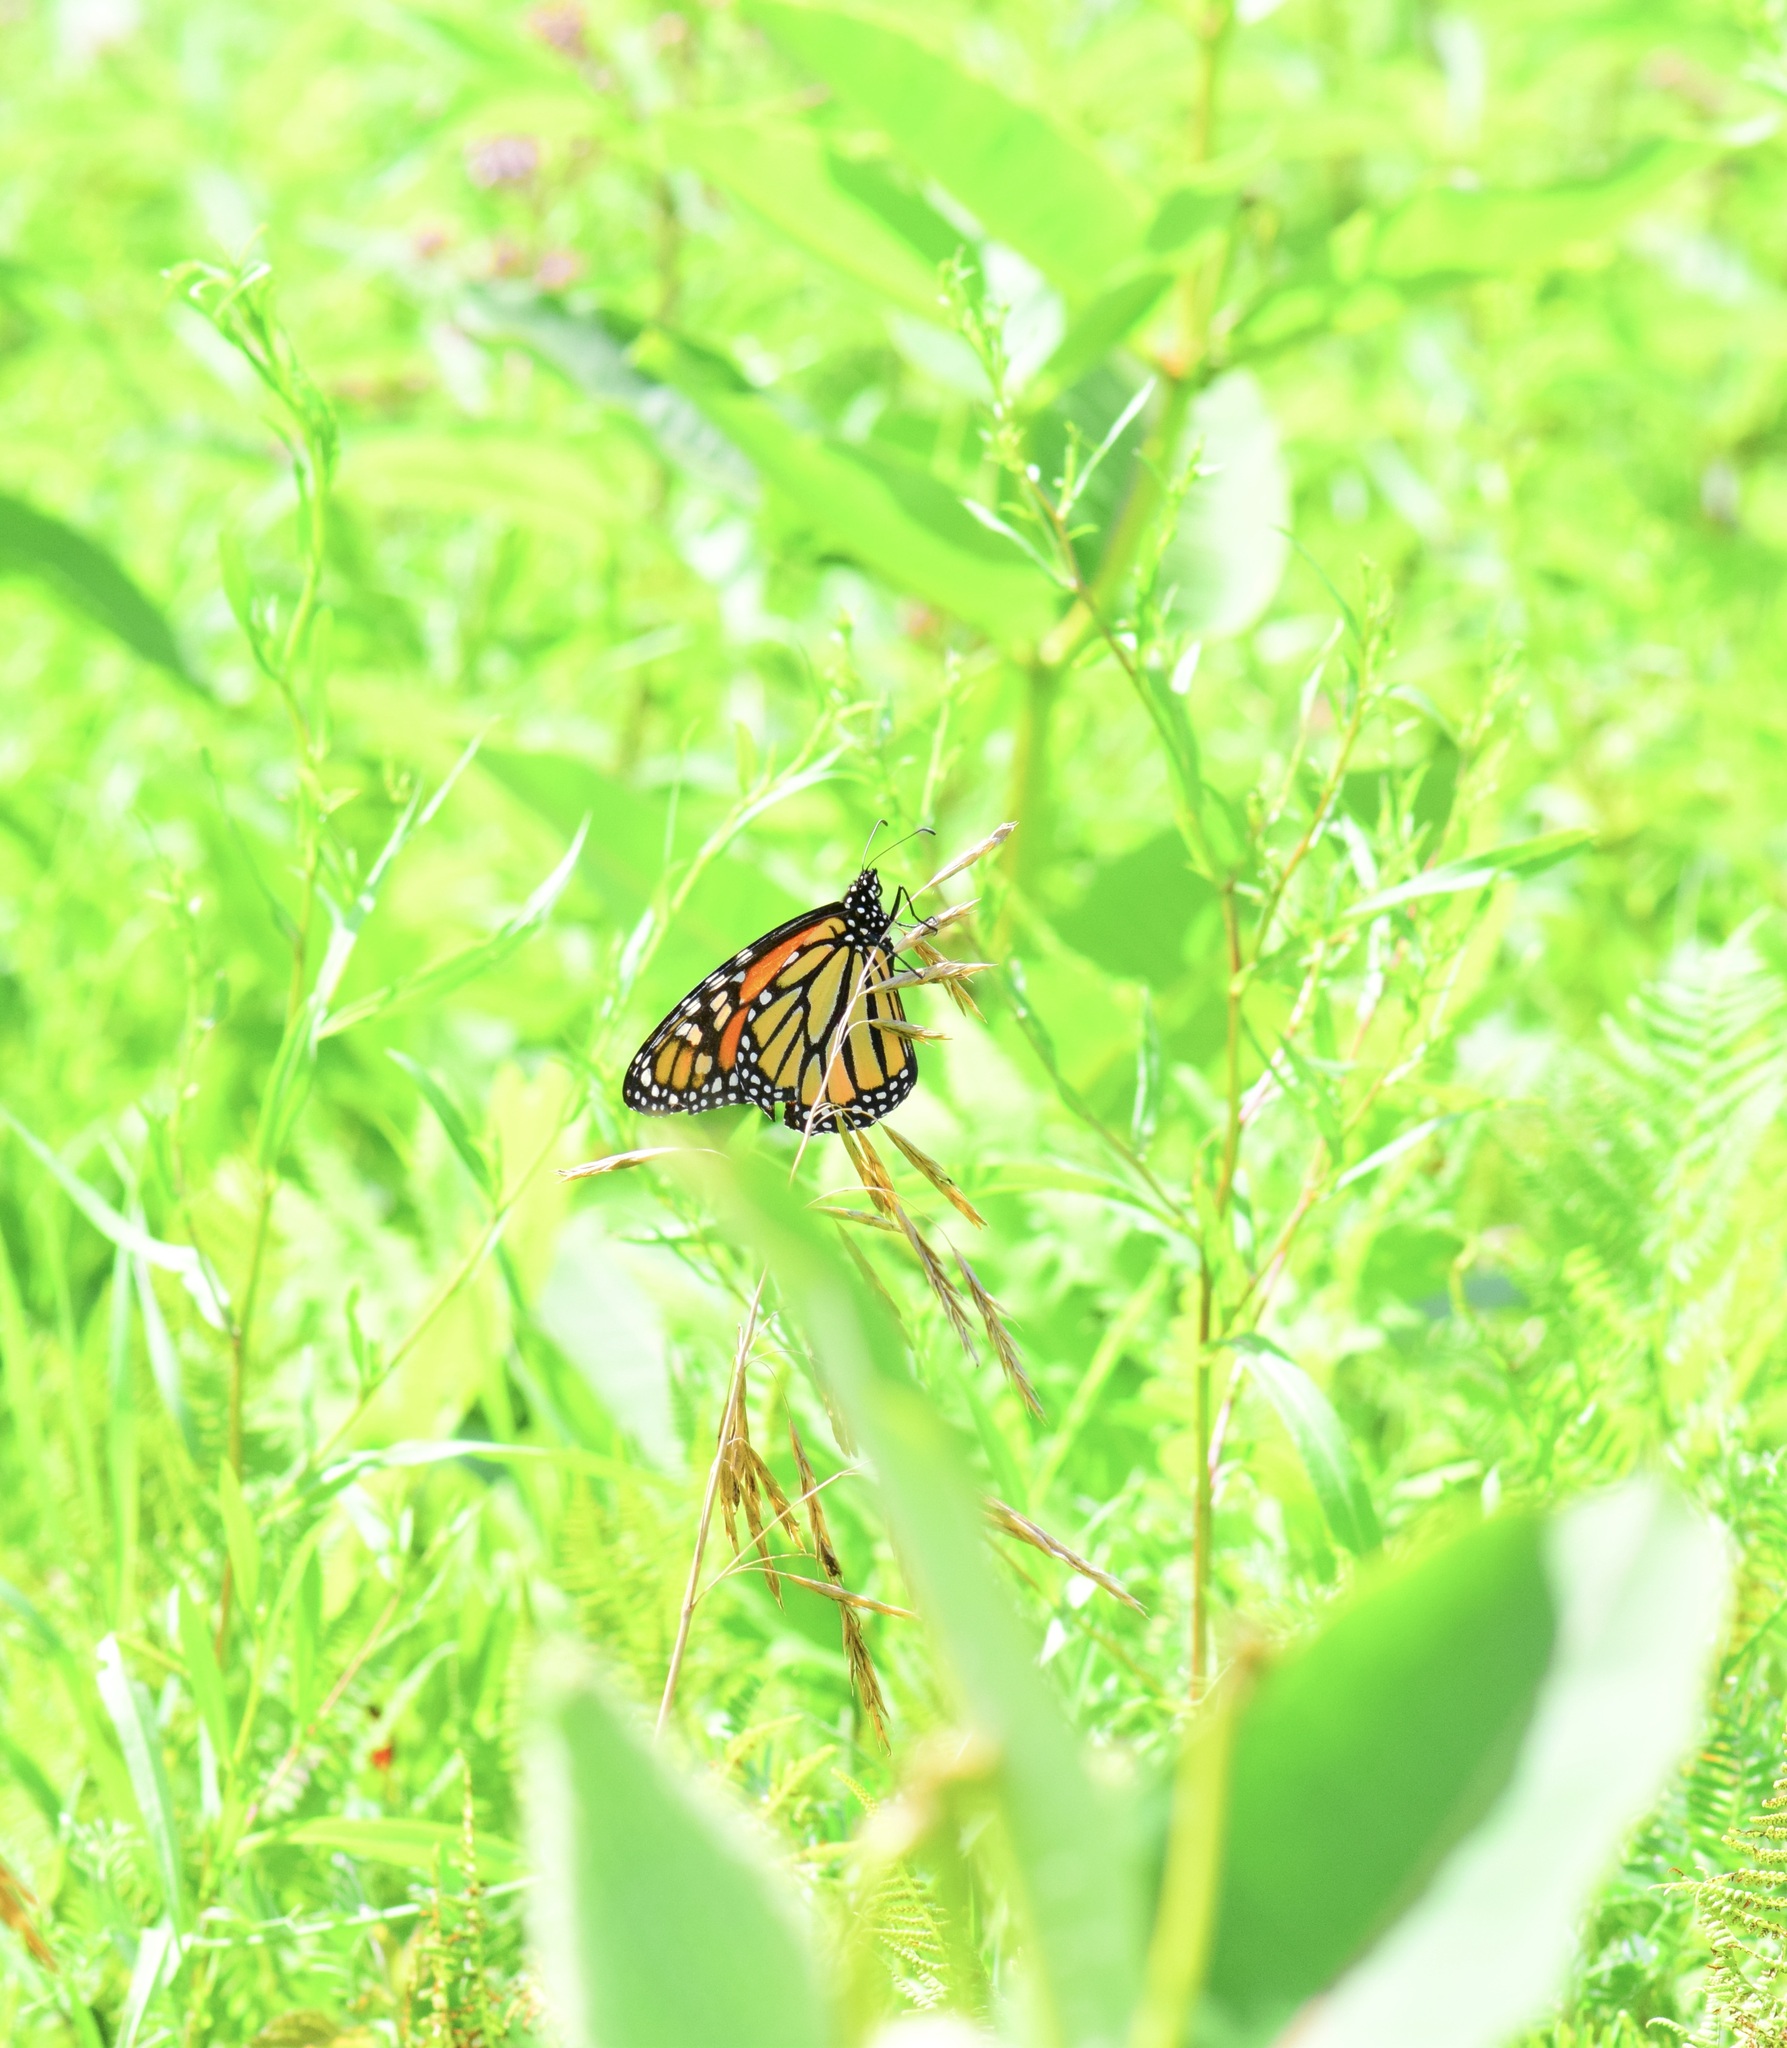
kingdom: Animalia
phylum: Arthropoda
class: Insecta
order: Lepidoptera
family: Nymphalidae
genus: Danaus
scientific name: Danaus plexippus
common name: Monarch
